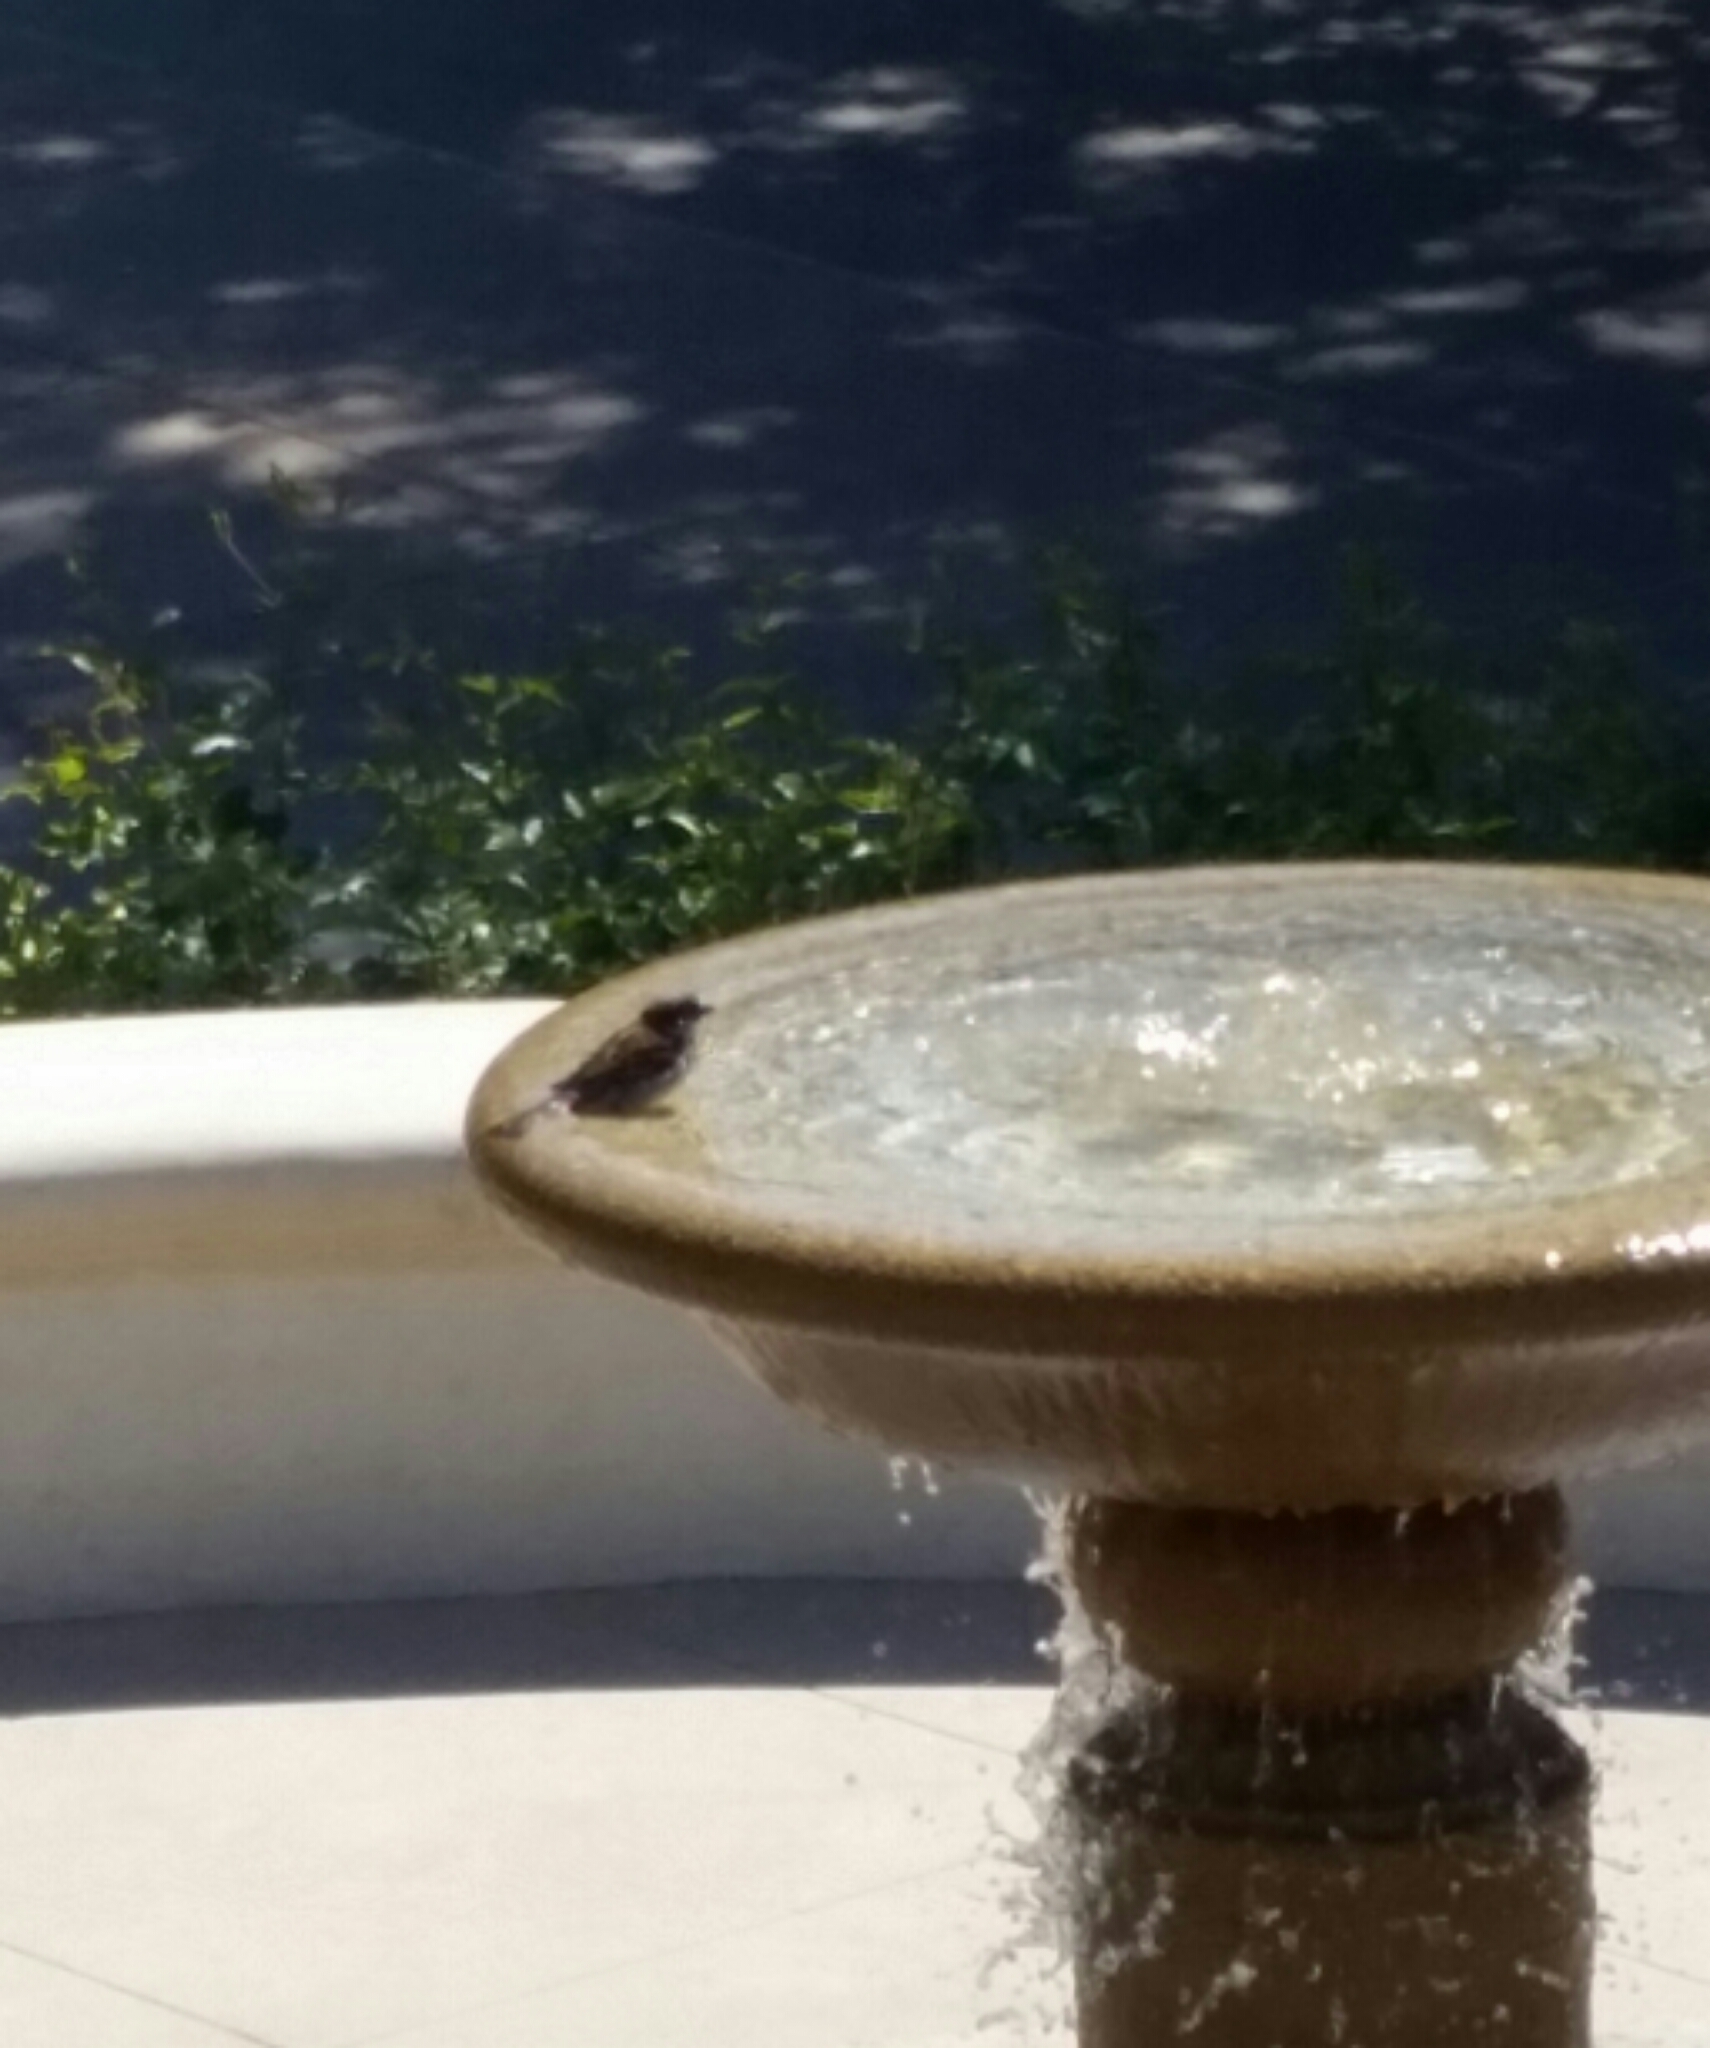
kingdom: Animalia
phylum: Chordata
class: Aves
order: Passeriformes
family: Passeridae
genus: Passer
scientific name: Passer domesticus
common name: House sparrow
